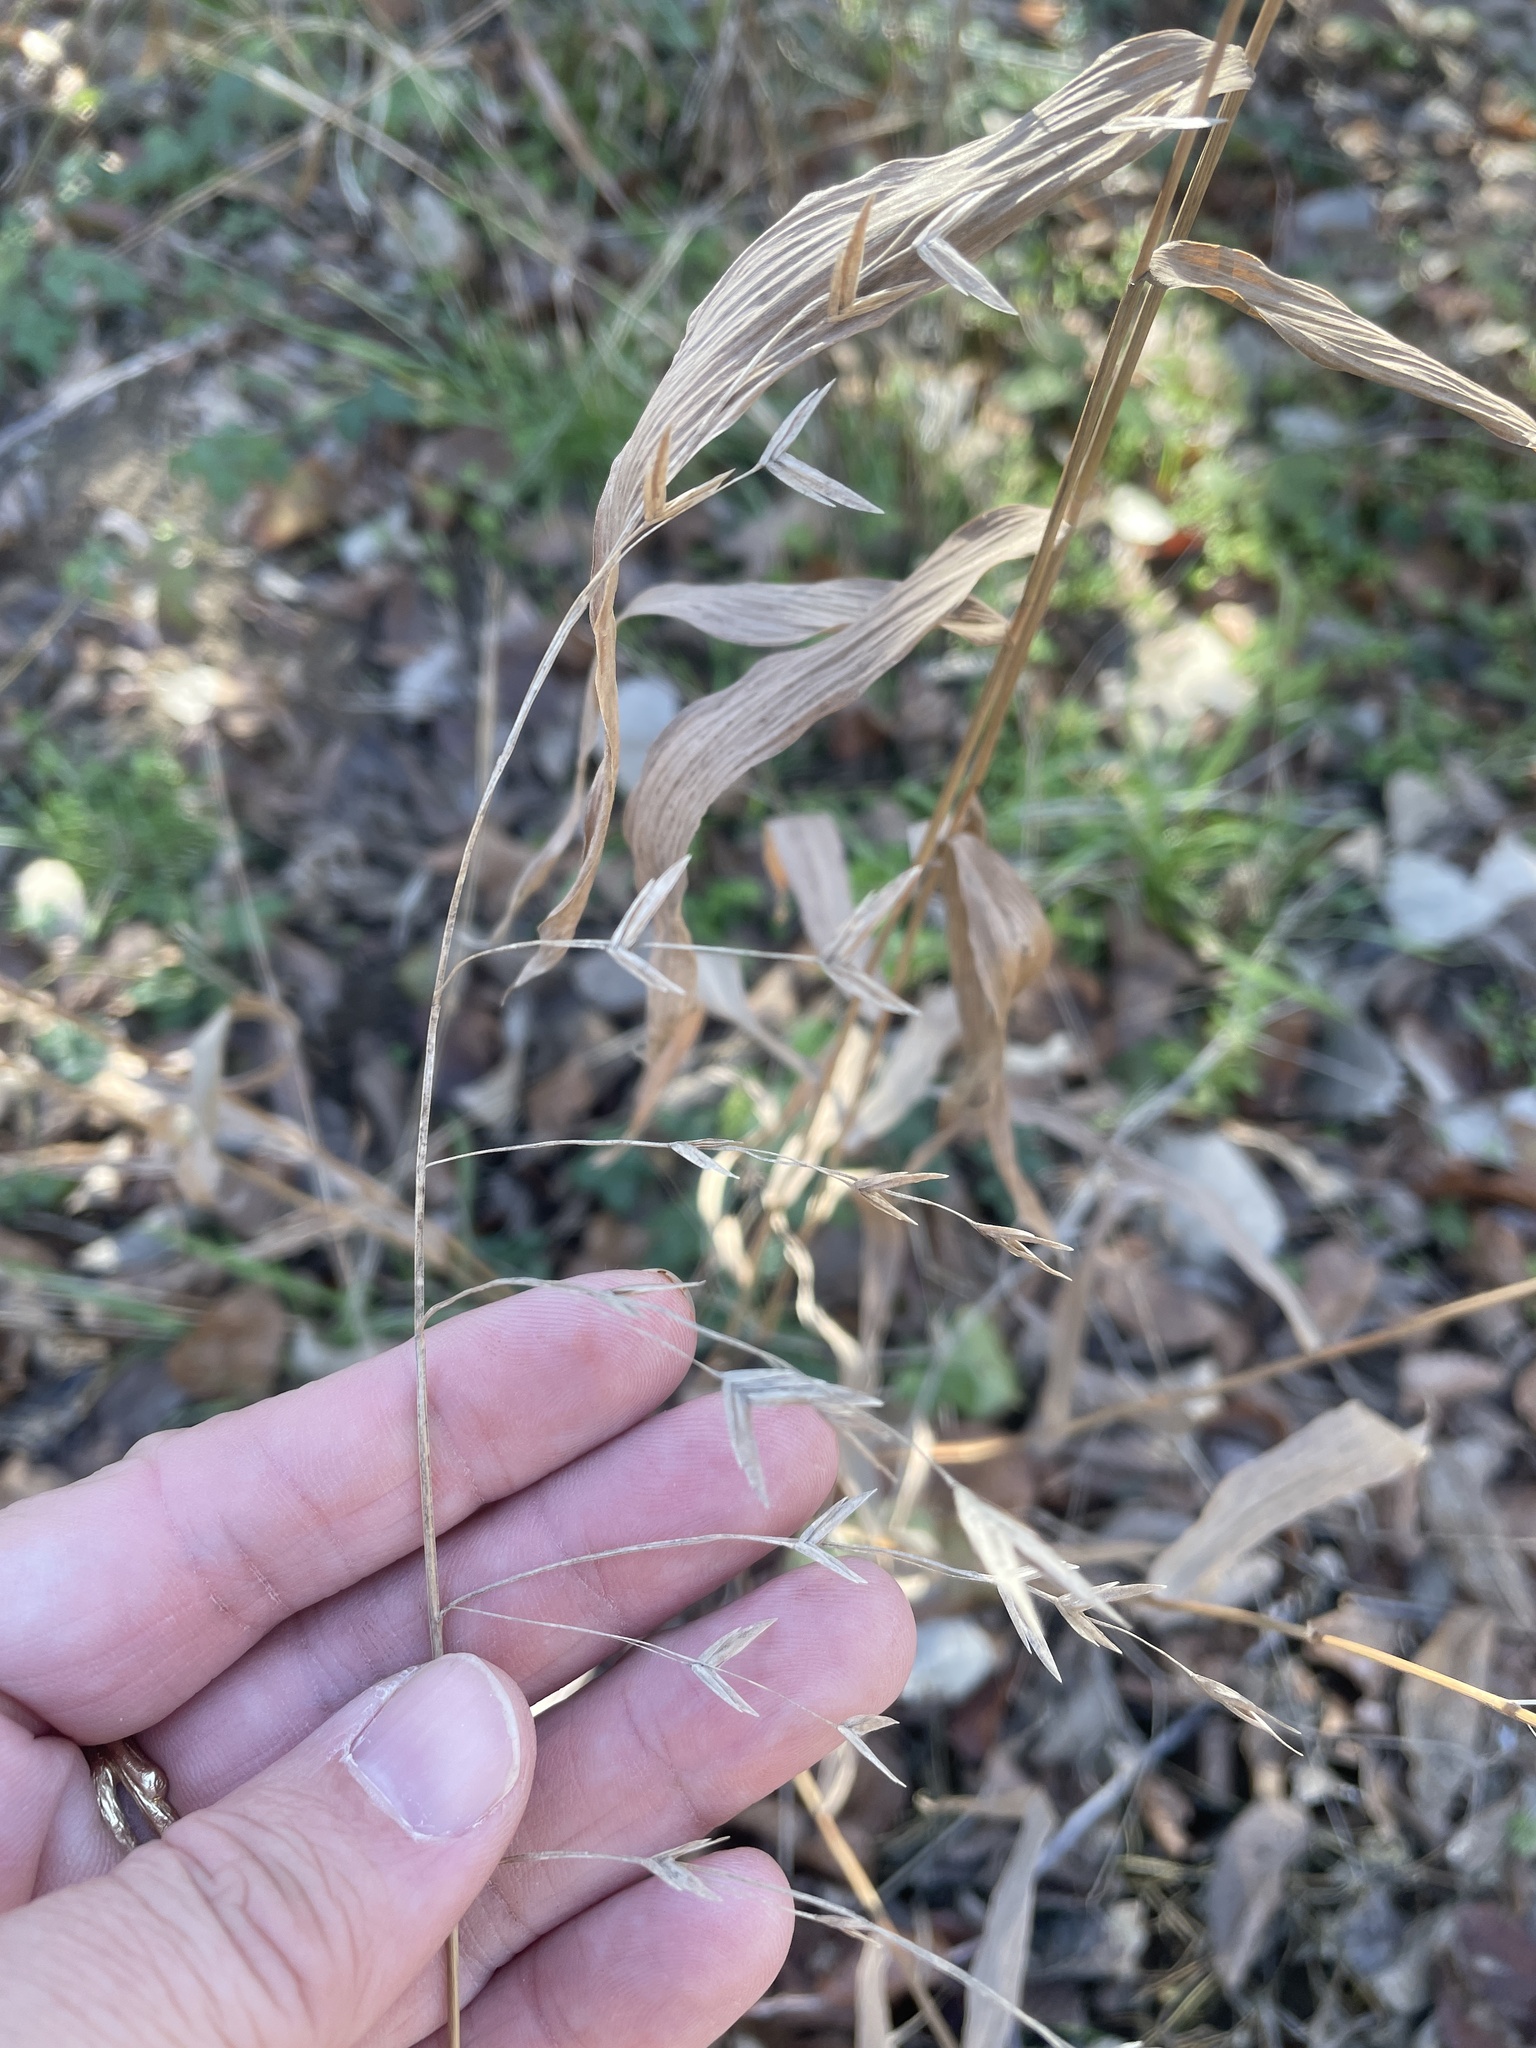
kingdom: Plantae
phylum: Tracheophyta
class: Liliopsida
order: Poales
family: Poaceae
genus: Chasmanthium
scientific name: Chasmanthium latifolium
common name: Broad-leaved chasmanthium
